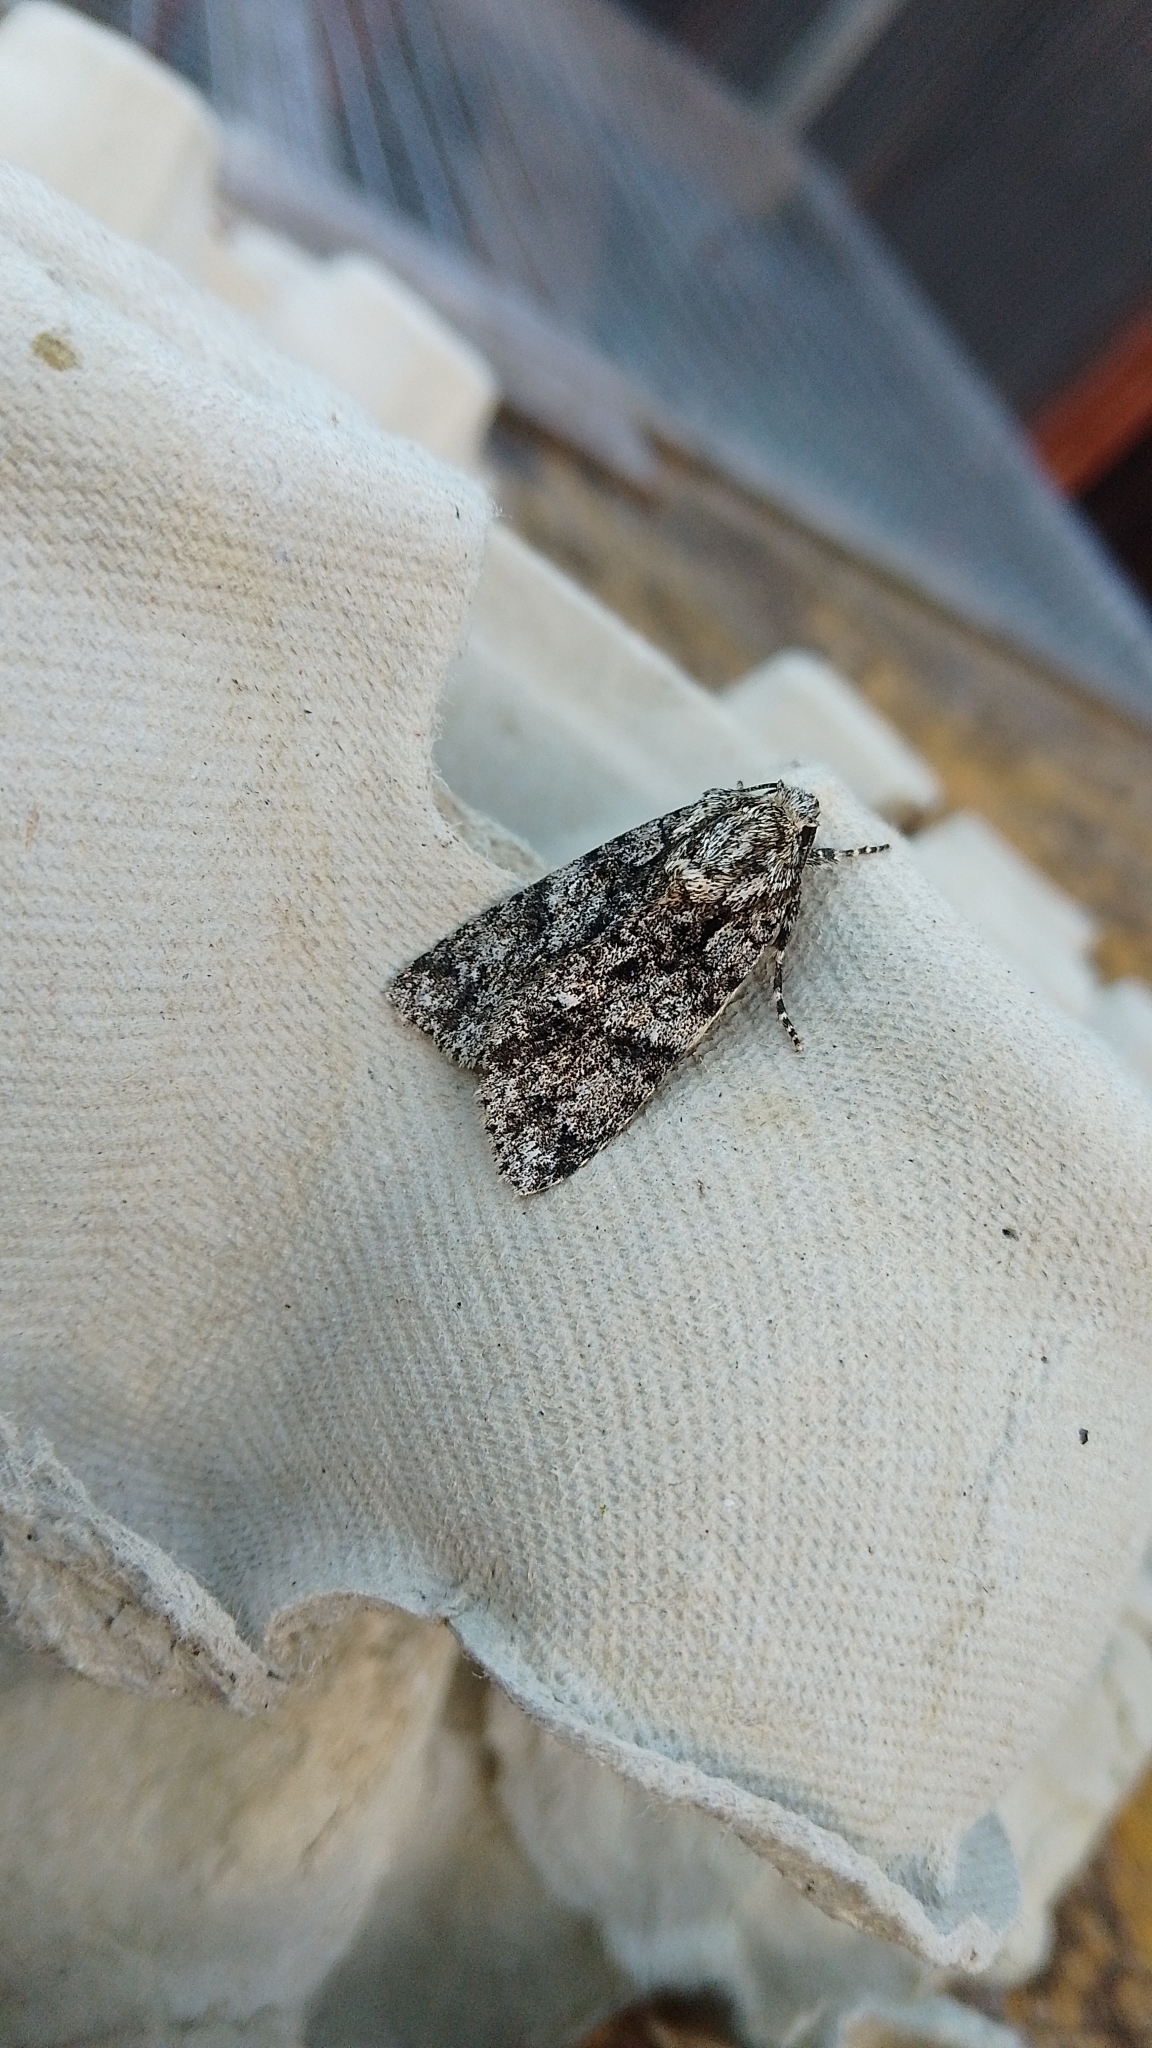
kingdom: Animalia
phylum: Arthropoda
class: Insecta
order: Lepidoptera
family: Noctuidae
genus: Acronicta
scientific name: Acronicta rumicis
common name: Knot grass
